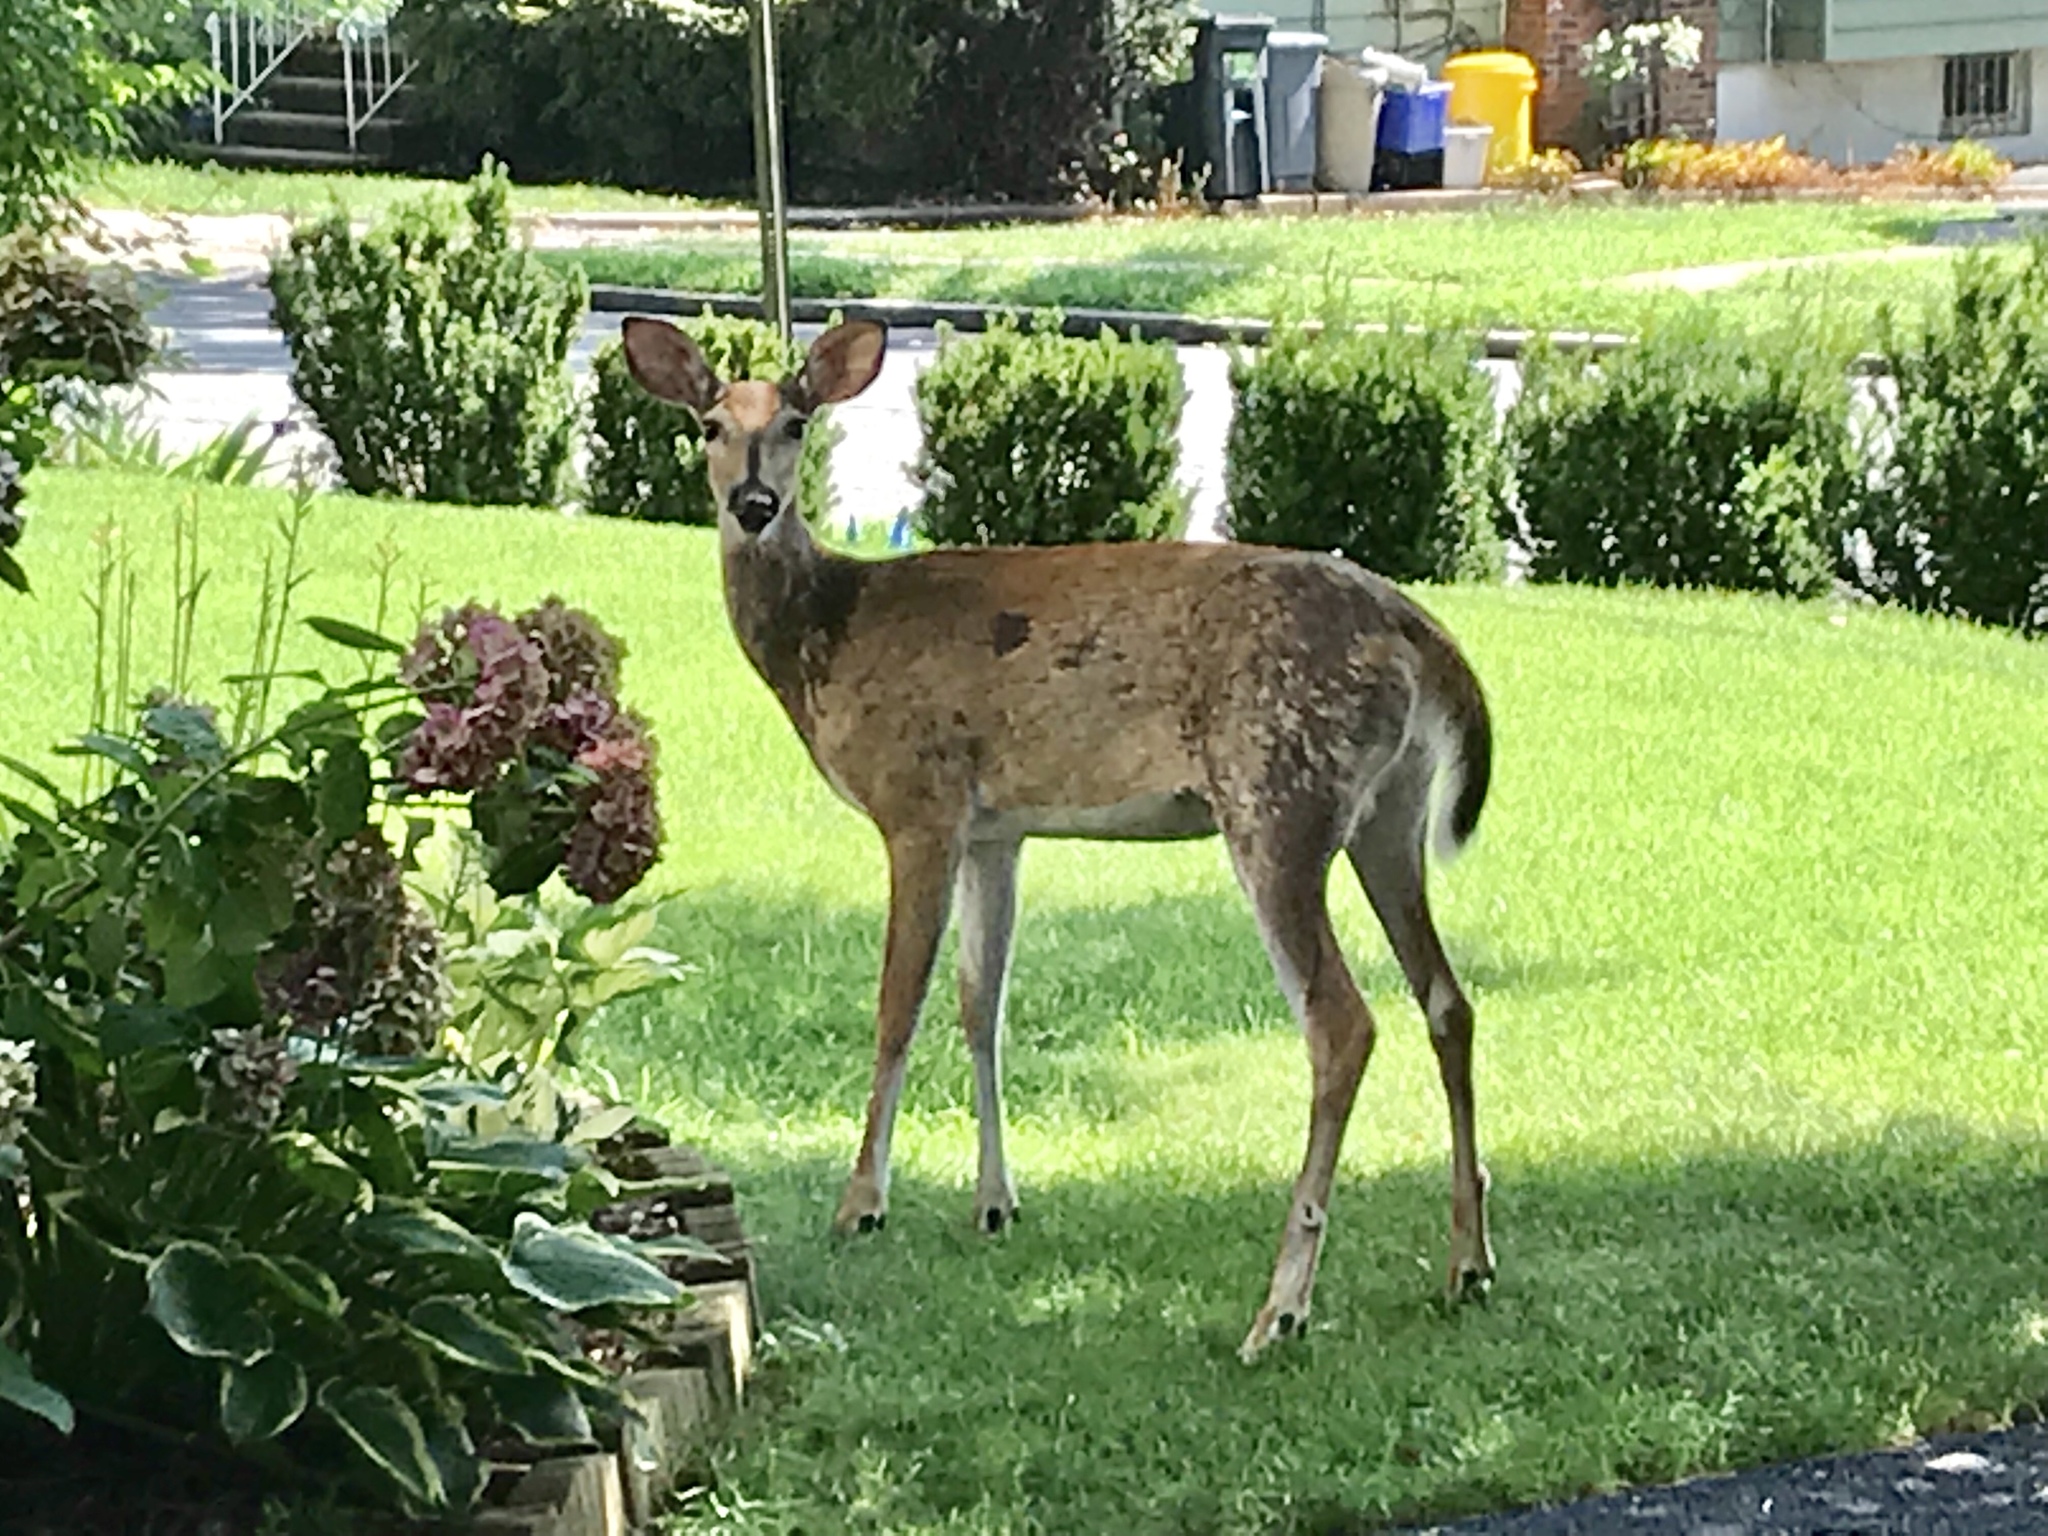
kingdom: Animalia
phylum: Chordata
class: Mammalia
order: Artiodactyla
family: Cervidae
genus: Odocoileus
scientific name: Odocoileus virginianus
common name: White-tailed deer
